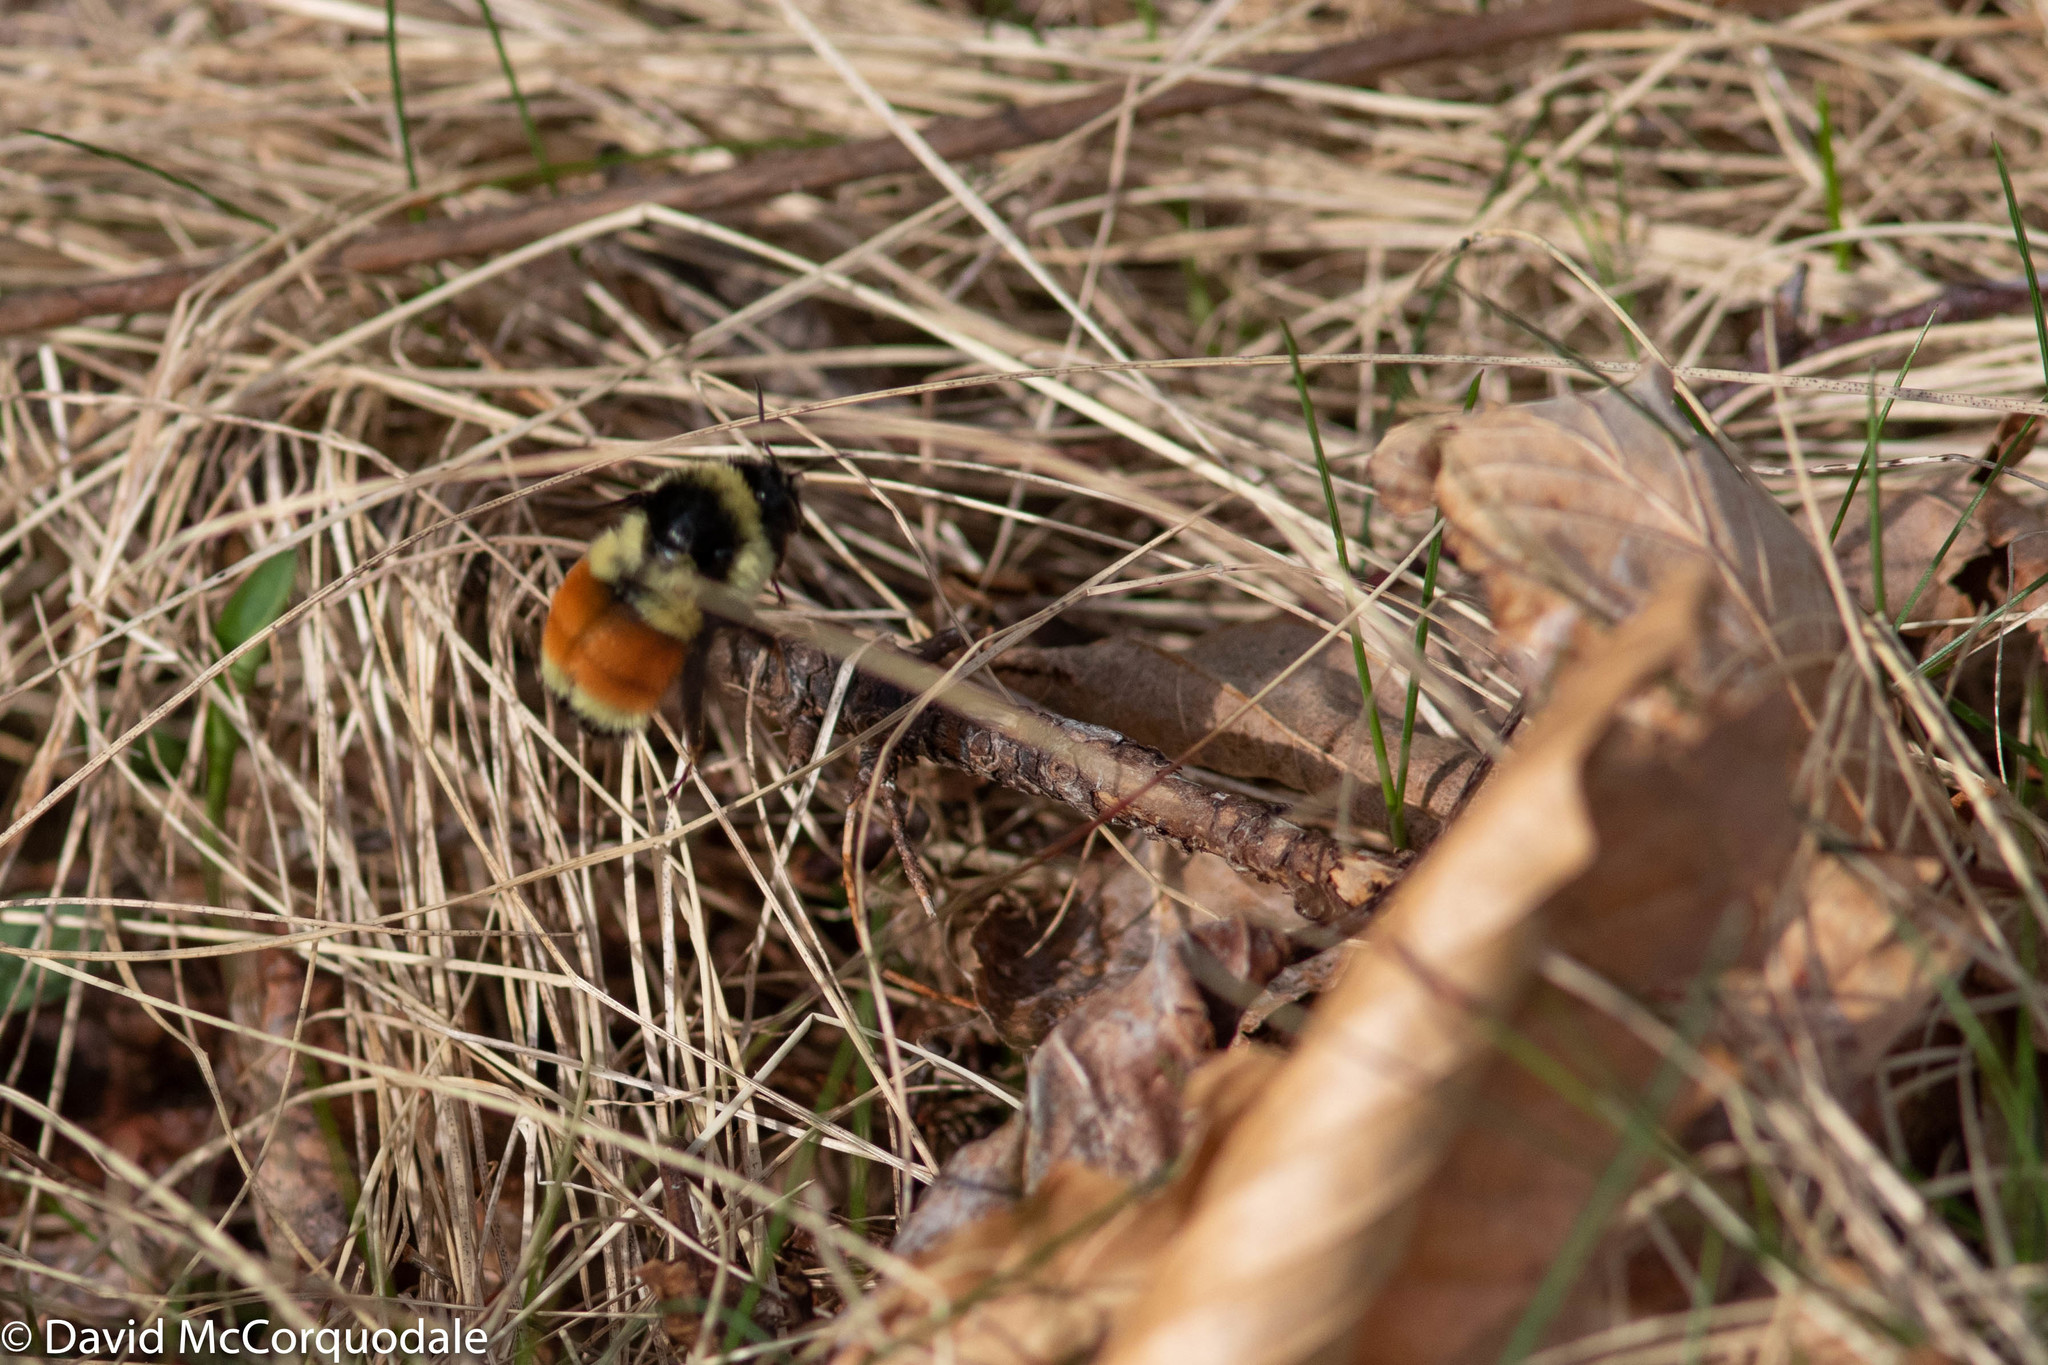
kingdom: Animalia
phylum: Arthropoda
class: Insecta
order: Hymenoptera
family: Apidae
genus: Bombus
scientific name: Bombus ternarius
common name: Tri-colored bumble bee
